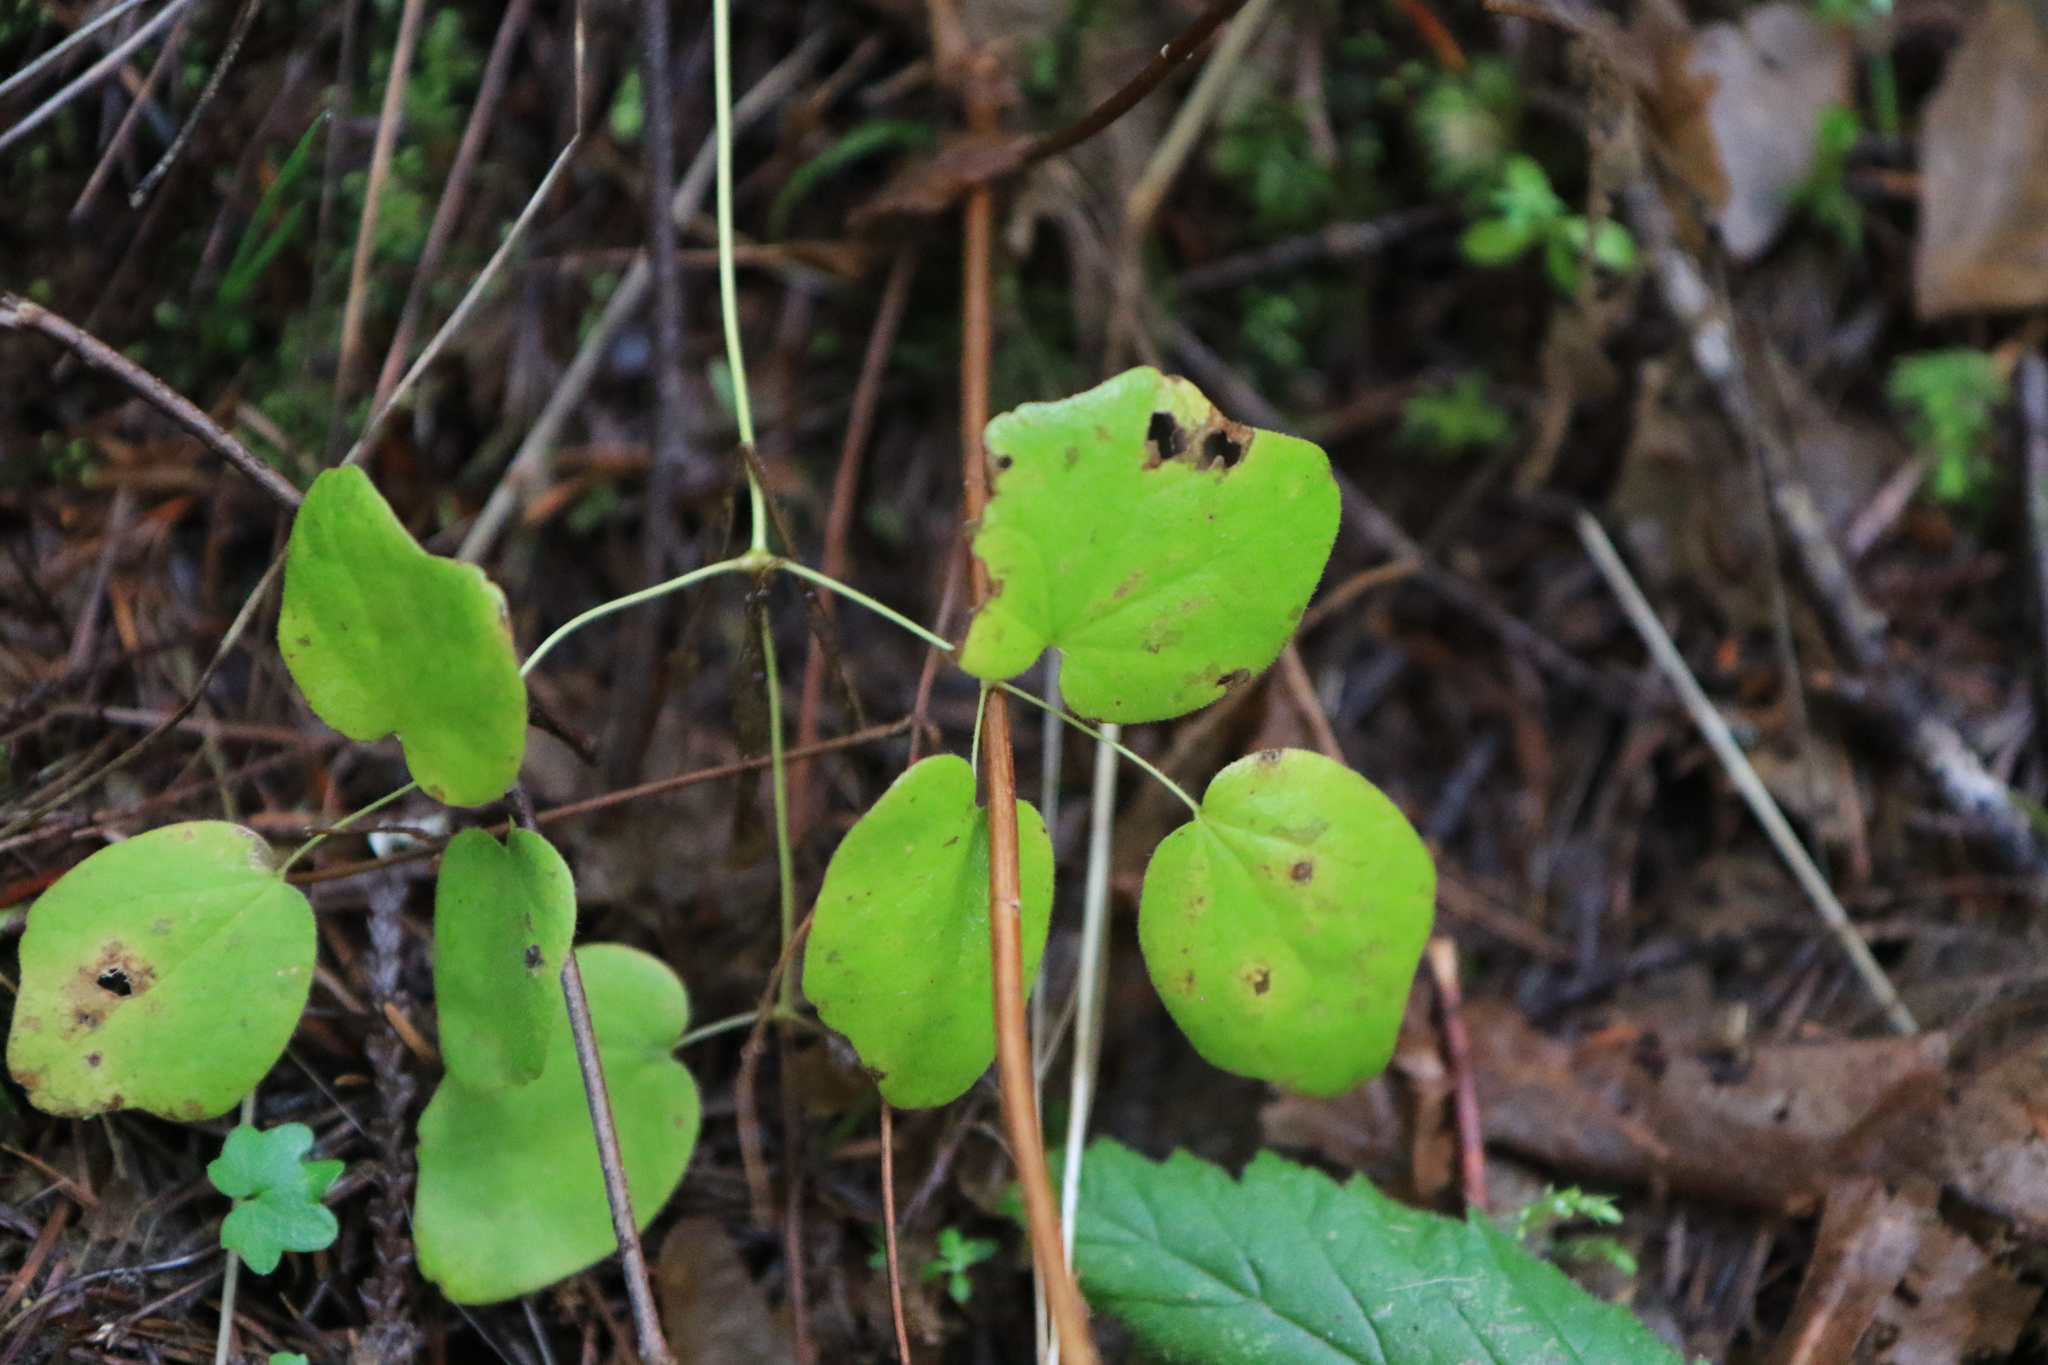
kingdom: Plantae
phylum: Tracheophyta
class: Magnoliopsida
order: Ranunculales
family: Berberidaceae
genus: Vancouveria
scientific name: Vancouveria hexandra
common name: Northern inside-out-flower
